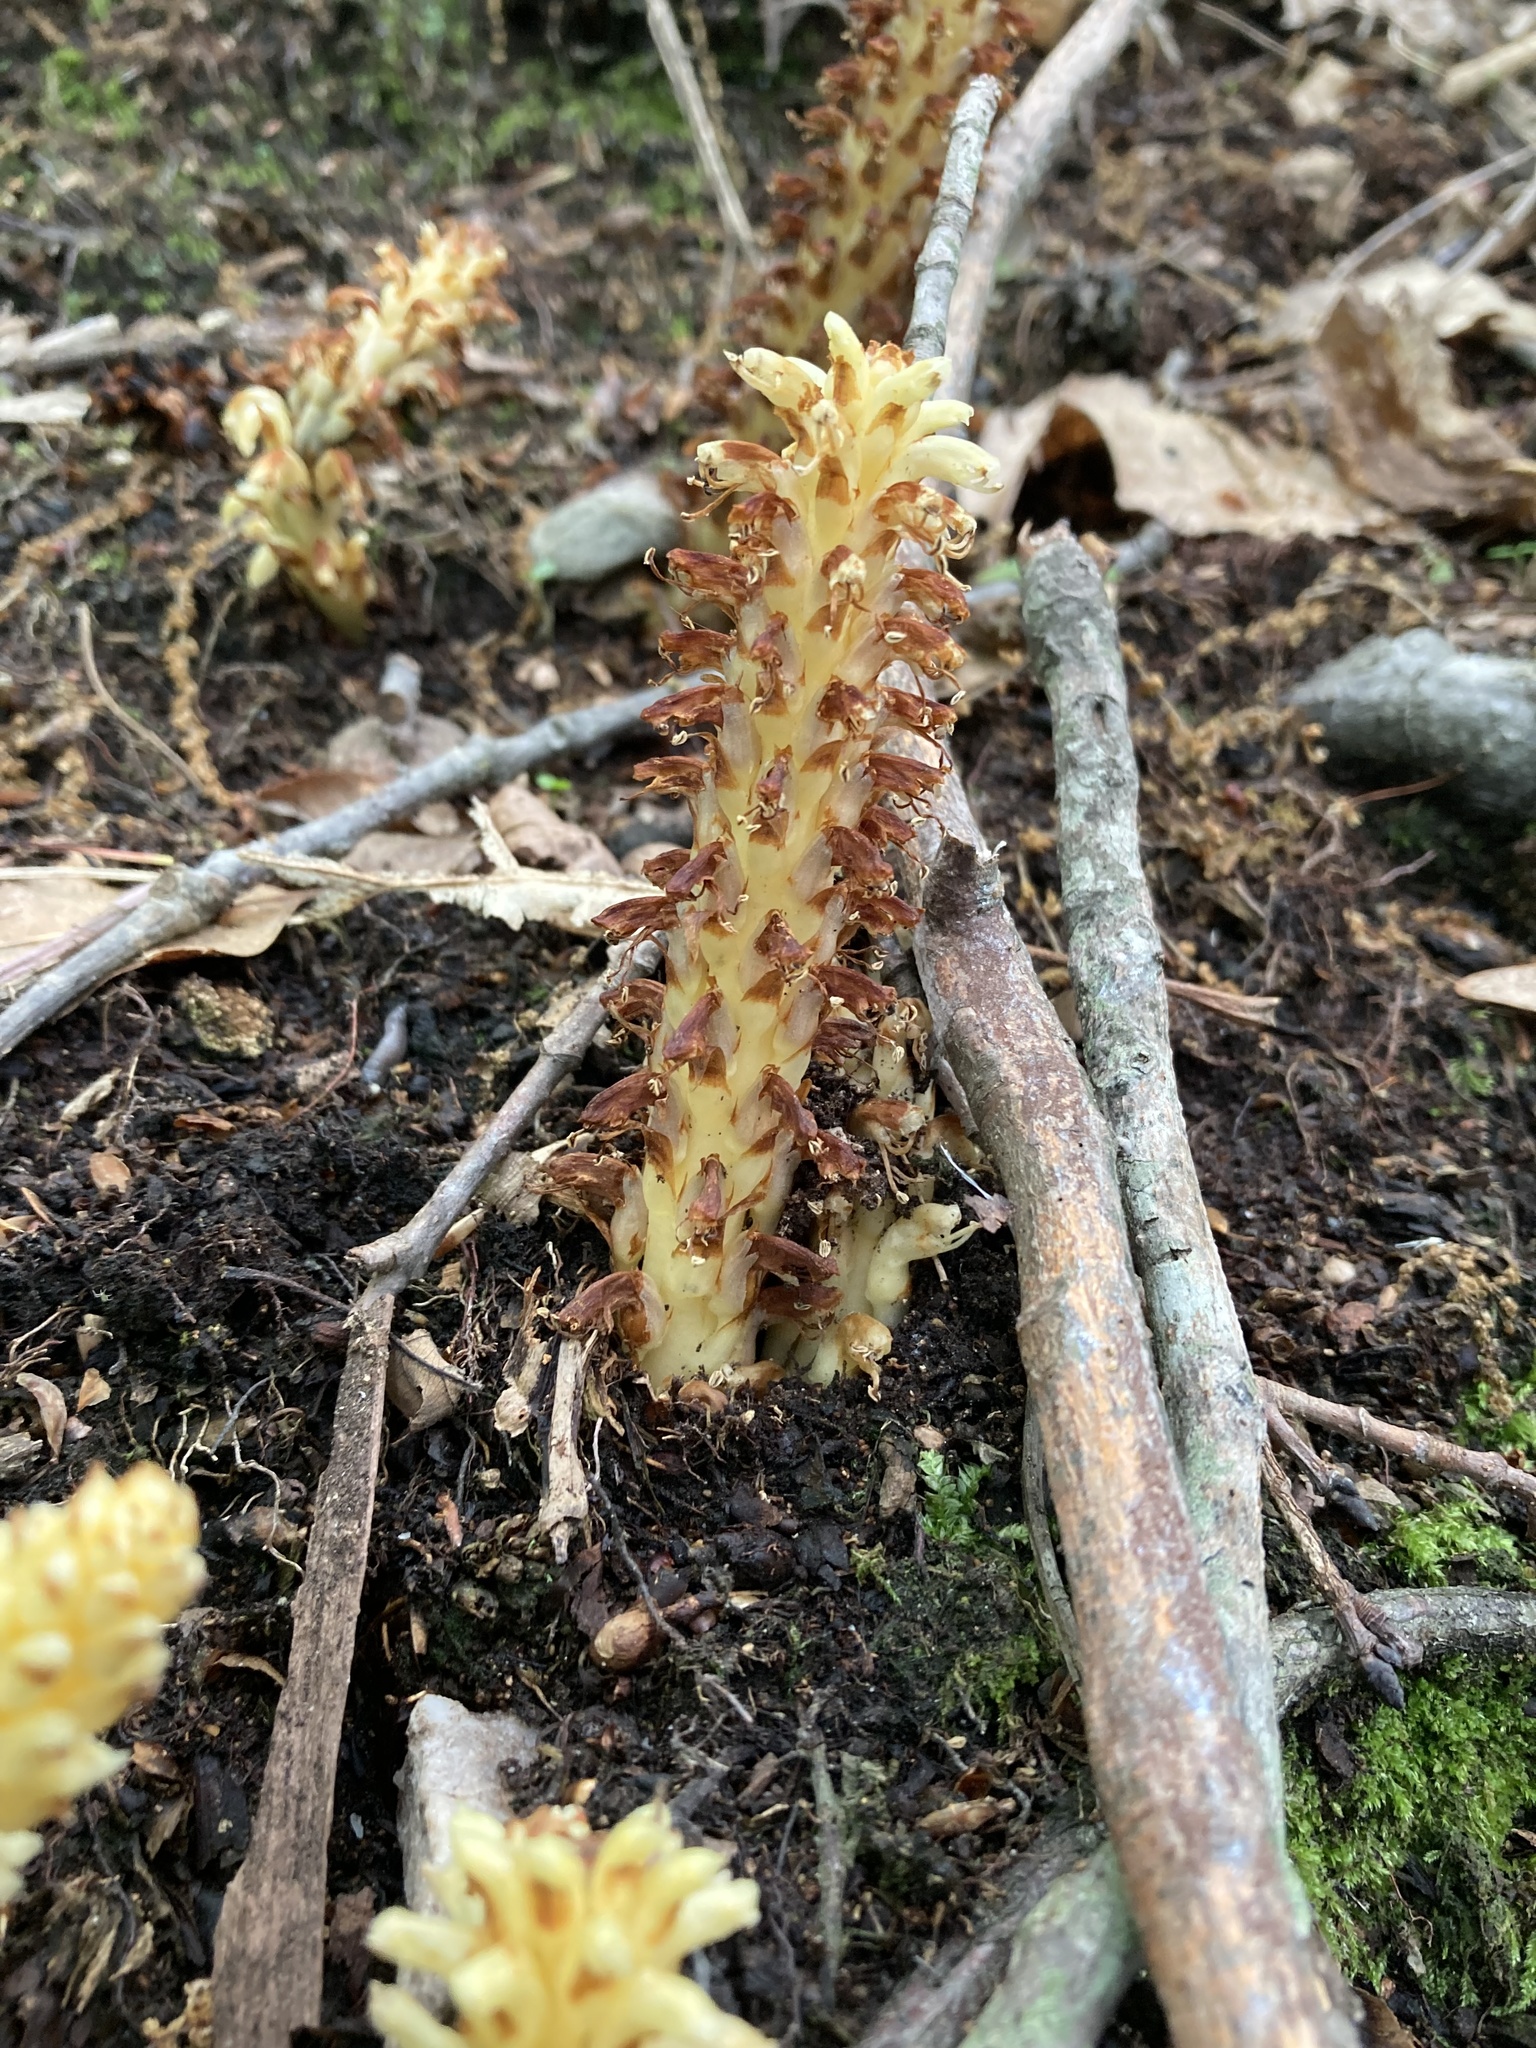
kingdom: Plantae
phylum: Tracheophyta
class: Magnoliopsida
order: Lamiales
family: Orobanchaceae
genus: Conopholis
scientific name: Conopholis americana
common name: American cancer-root
